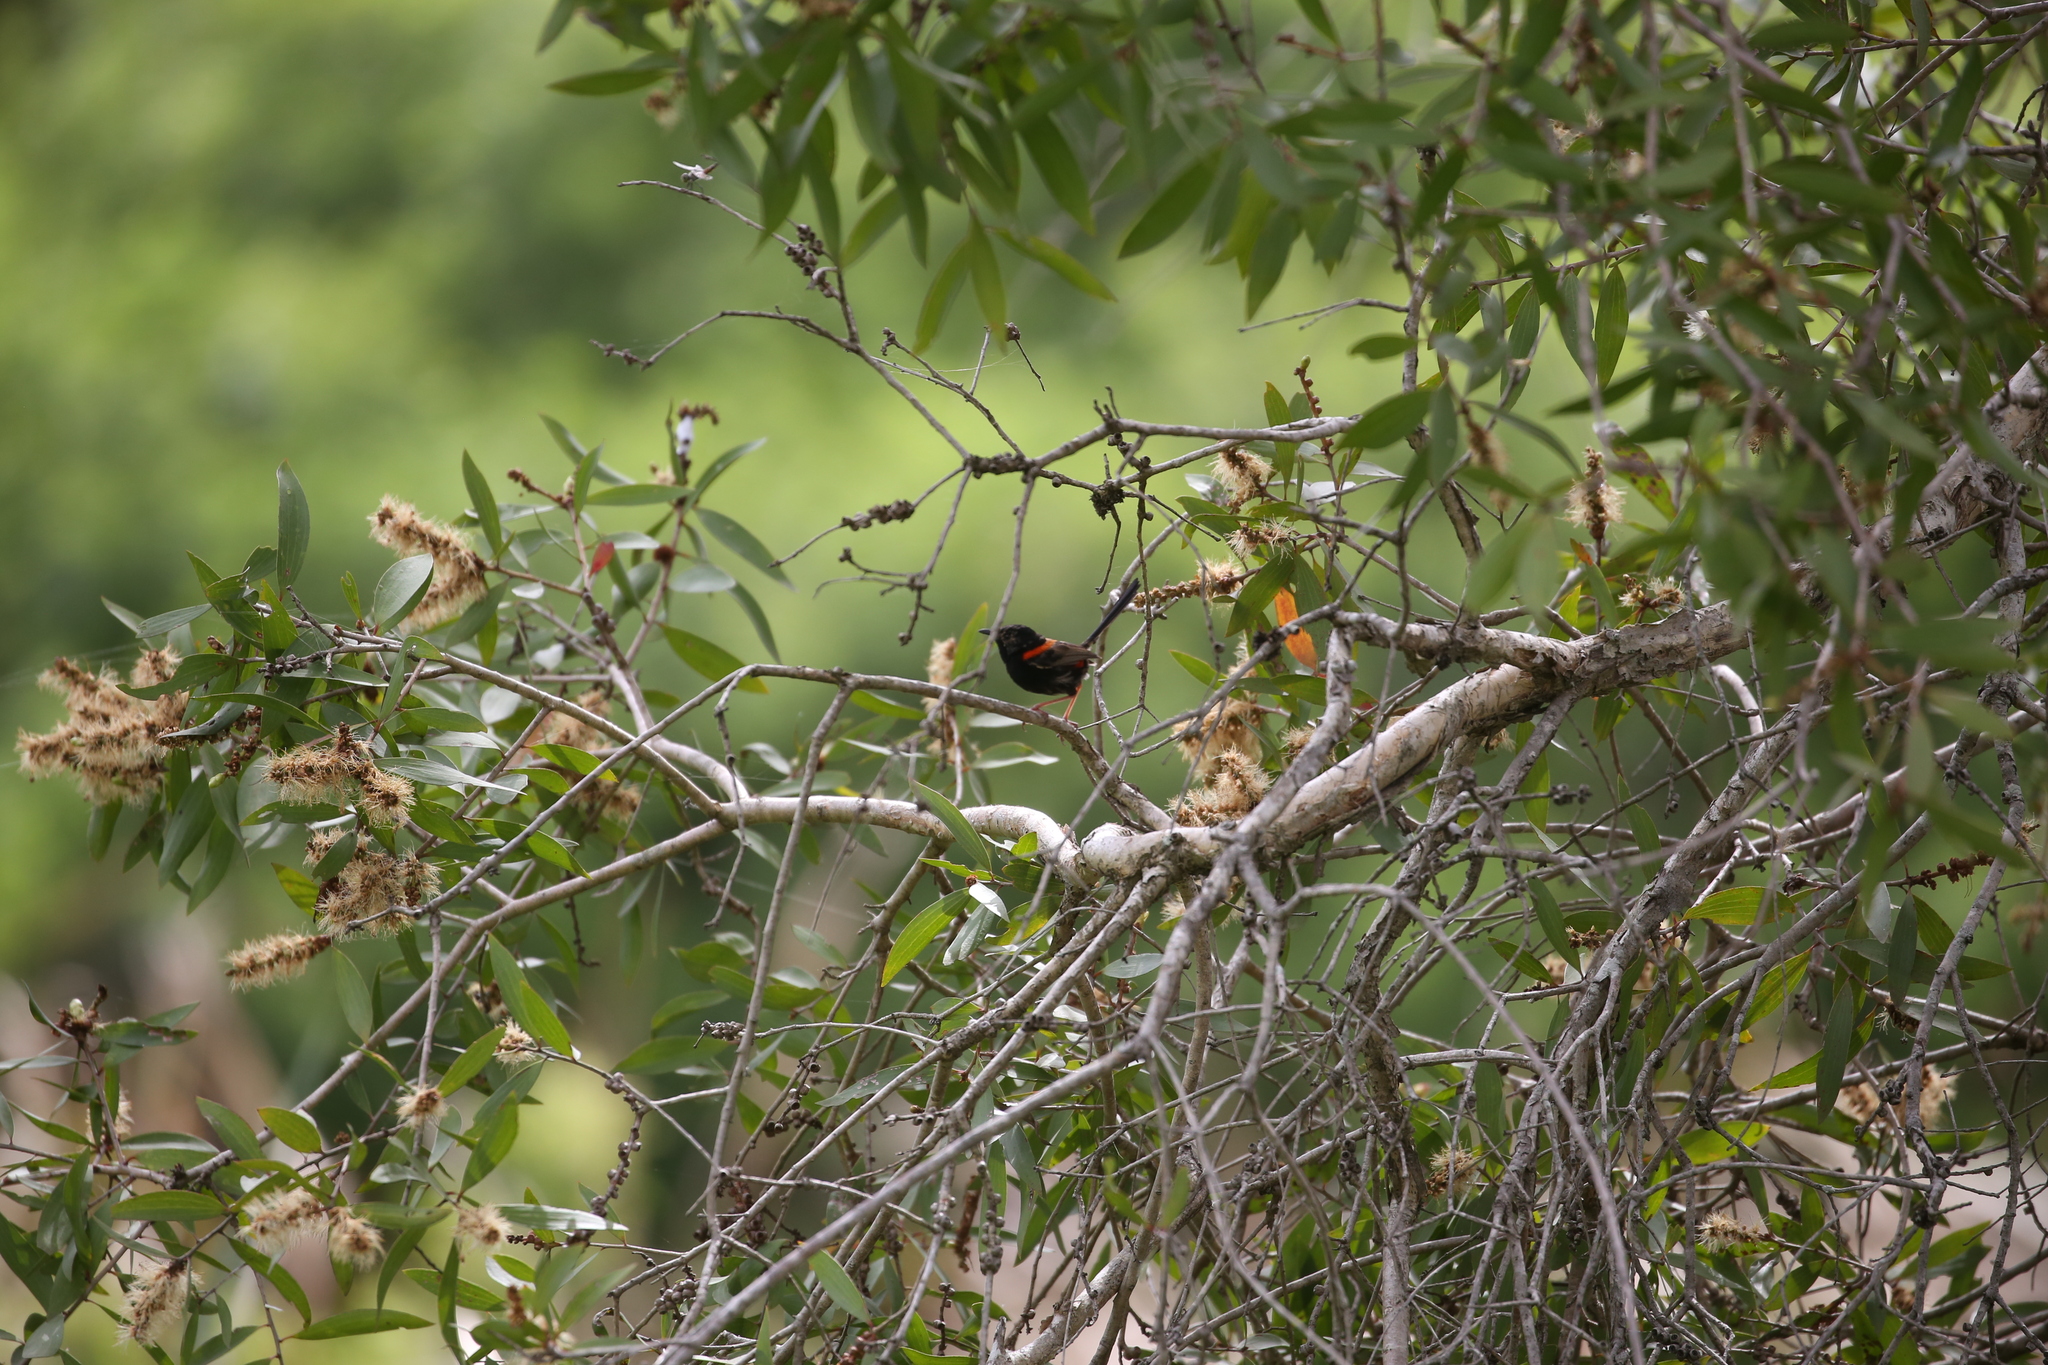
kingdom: Animalia
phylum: Chordata
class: Aves
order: Passeriformes
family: Maluridae
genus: Malurus
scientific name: Malurus melanocephalus
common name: Red-backed fairywren
